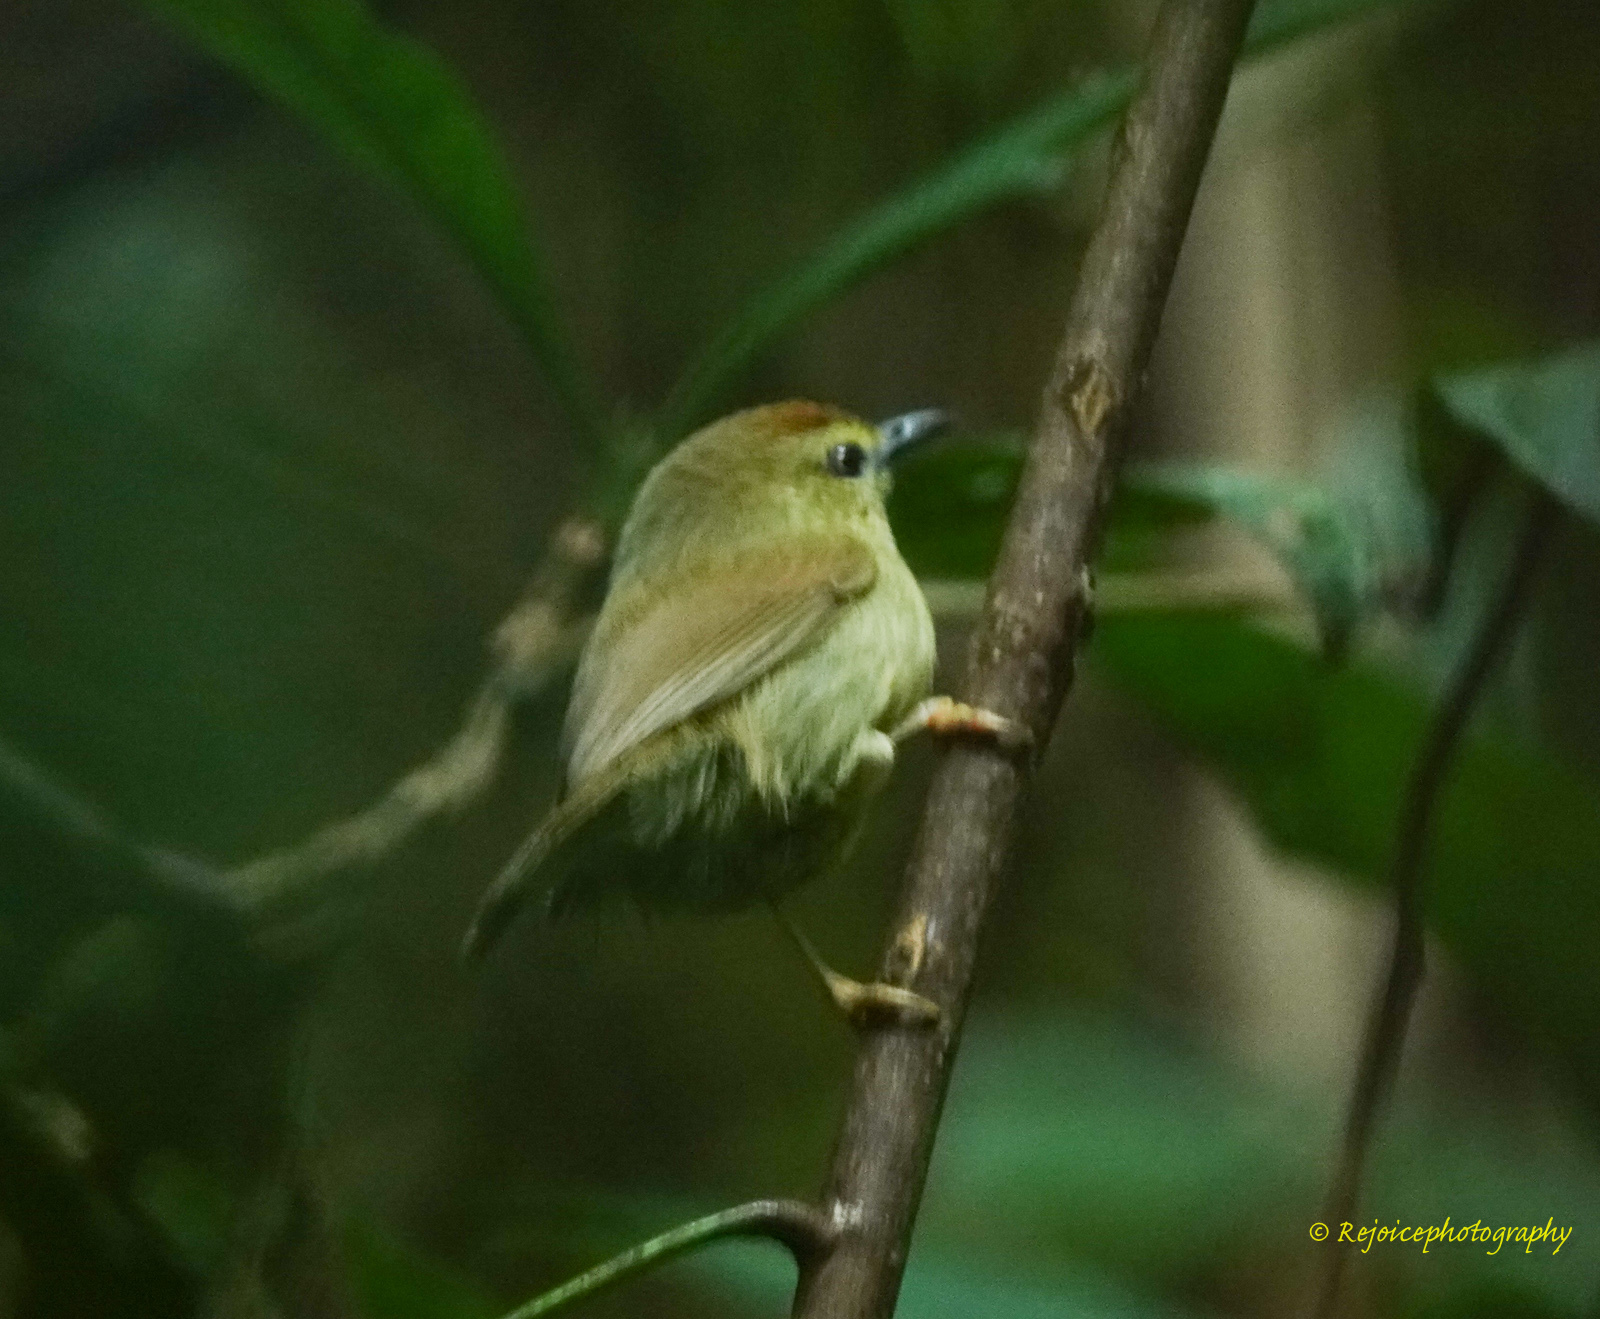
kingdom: Animalia
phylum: Chordata
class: Aves
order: Passeriformes
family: Timaliidae
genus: Macronus
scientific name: Macronus gularis
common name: Striped tit-babbler
